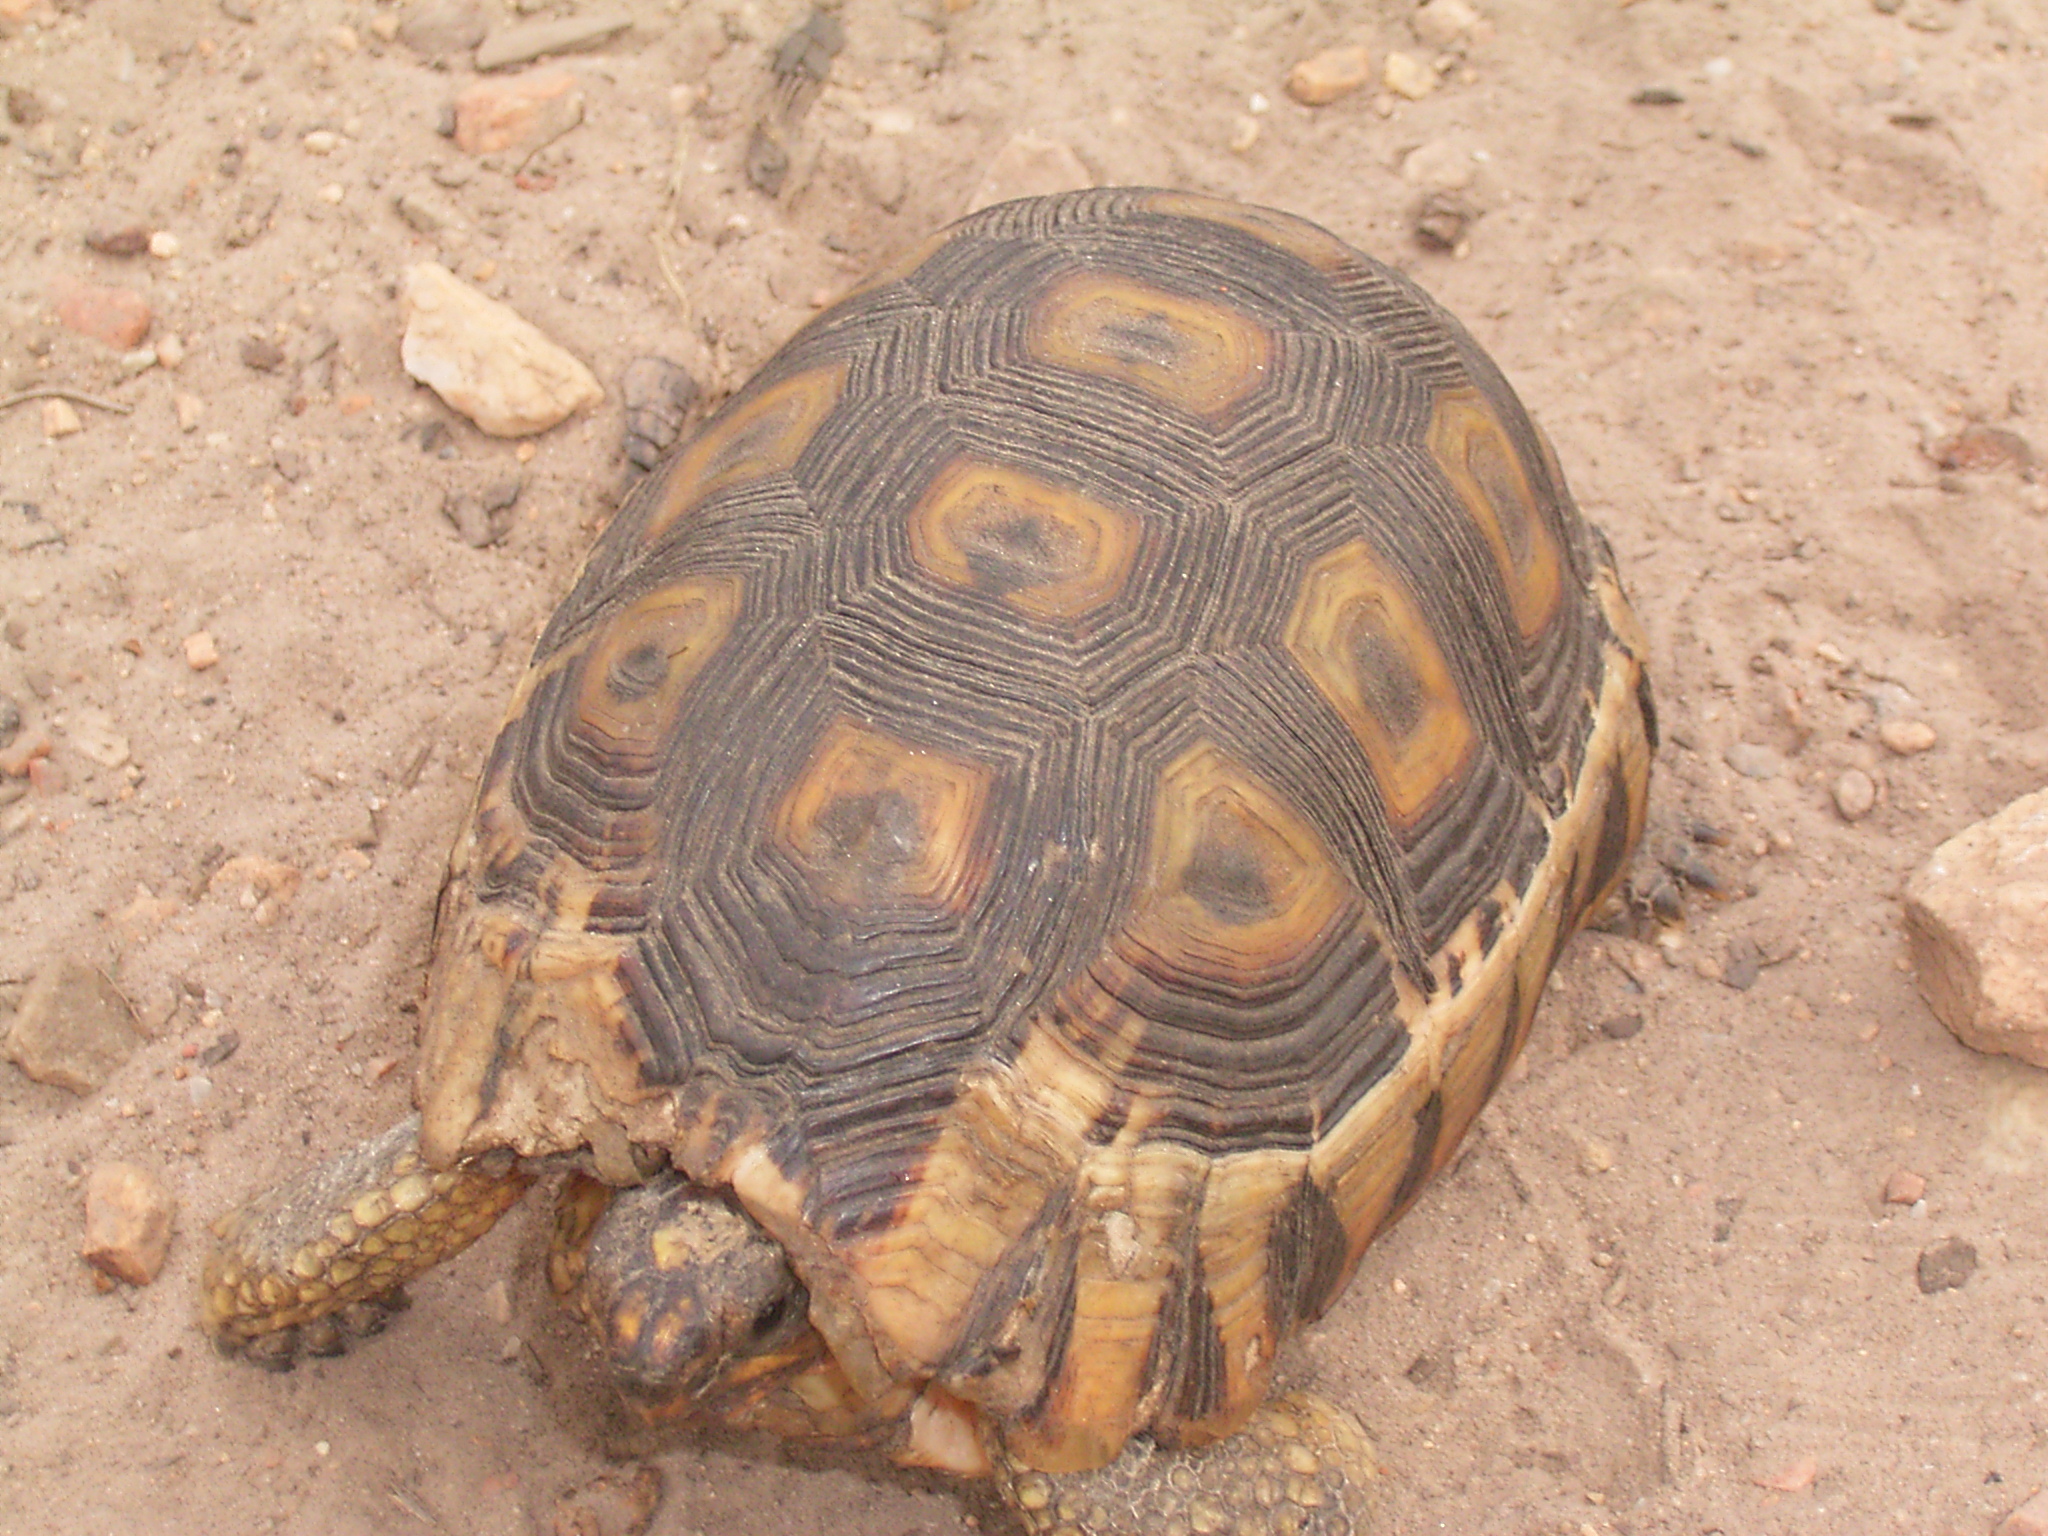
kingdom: Animalia
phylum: Chordata
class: Testudines
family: Testudinidae
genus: Chersina
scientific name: Chersina angulata
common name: South african bowsprit tortoise
